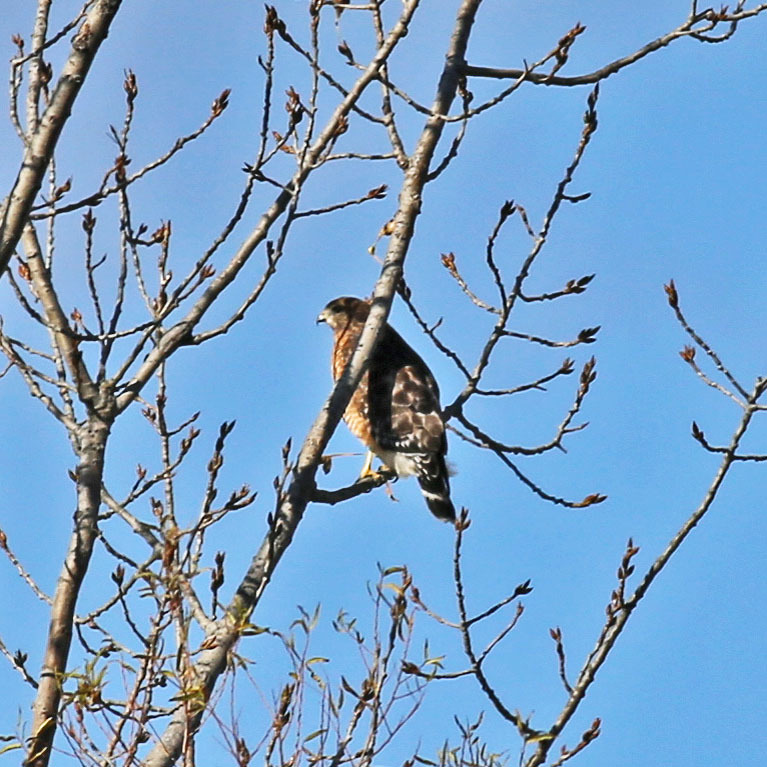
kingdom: Animalia
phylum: Chordata
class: Aves
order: Accipitriformes
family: Accipitridae
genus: Buteo
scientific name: Buteo lineatus
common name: Red-shouldered hawk
